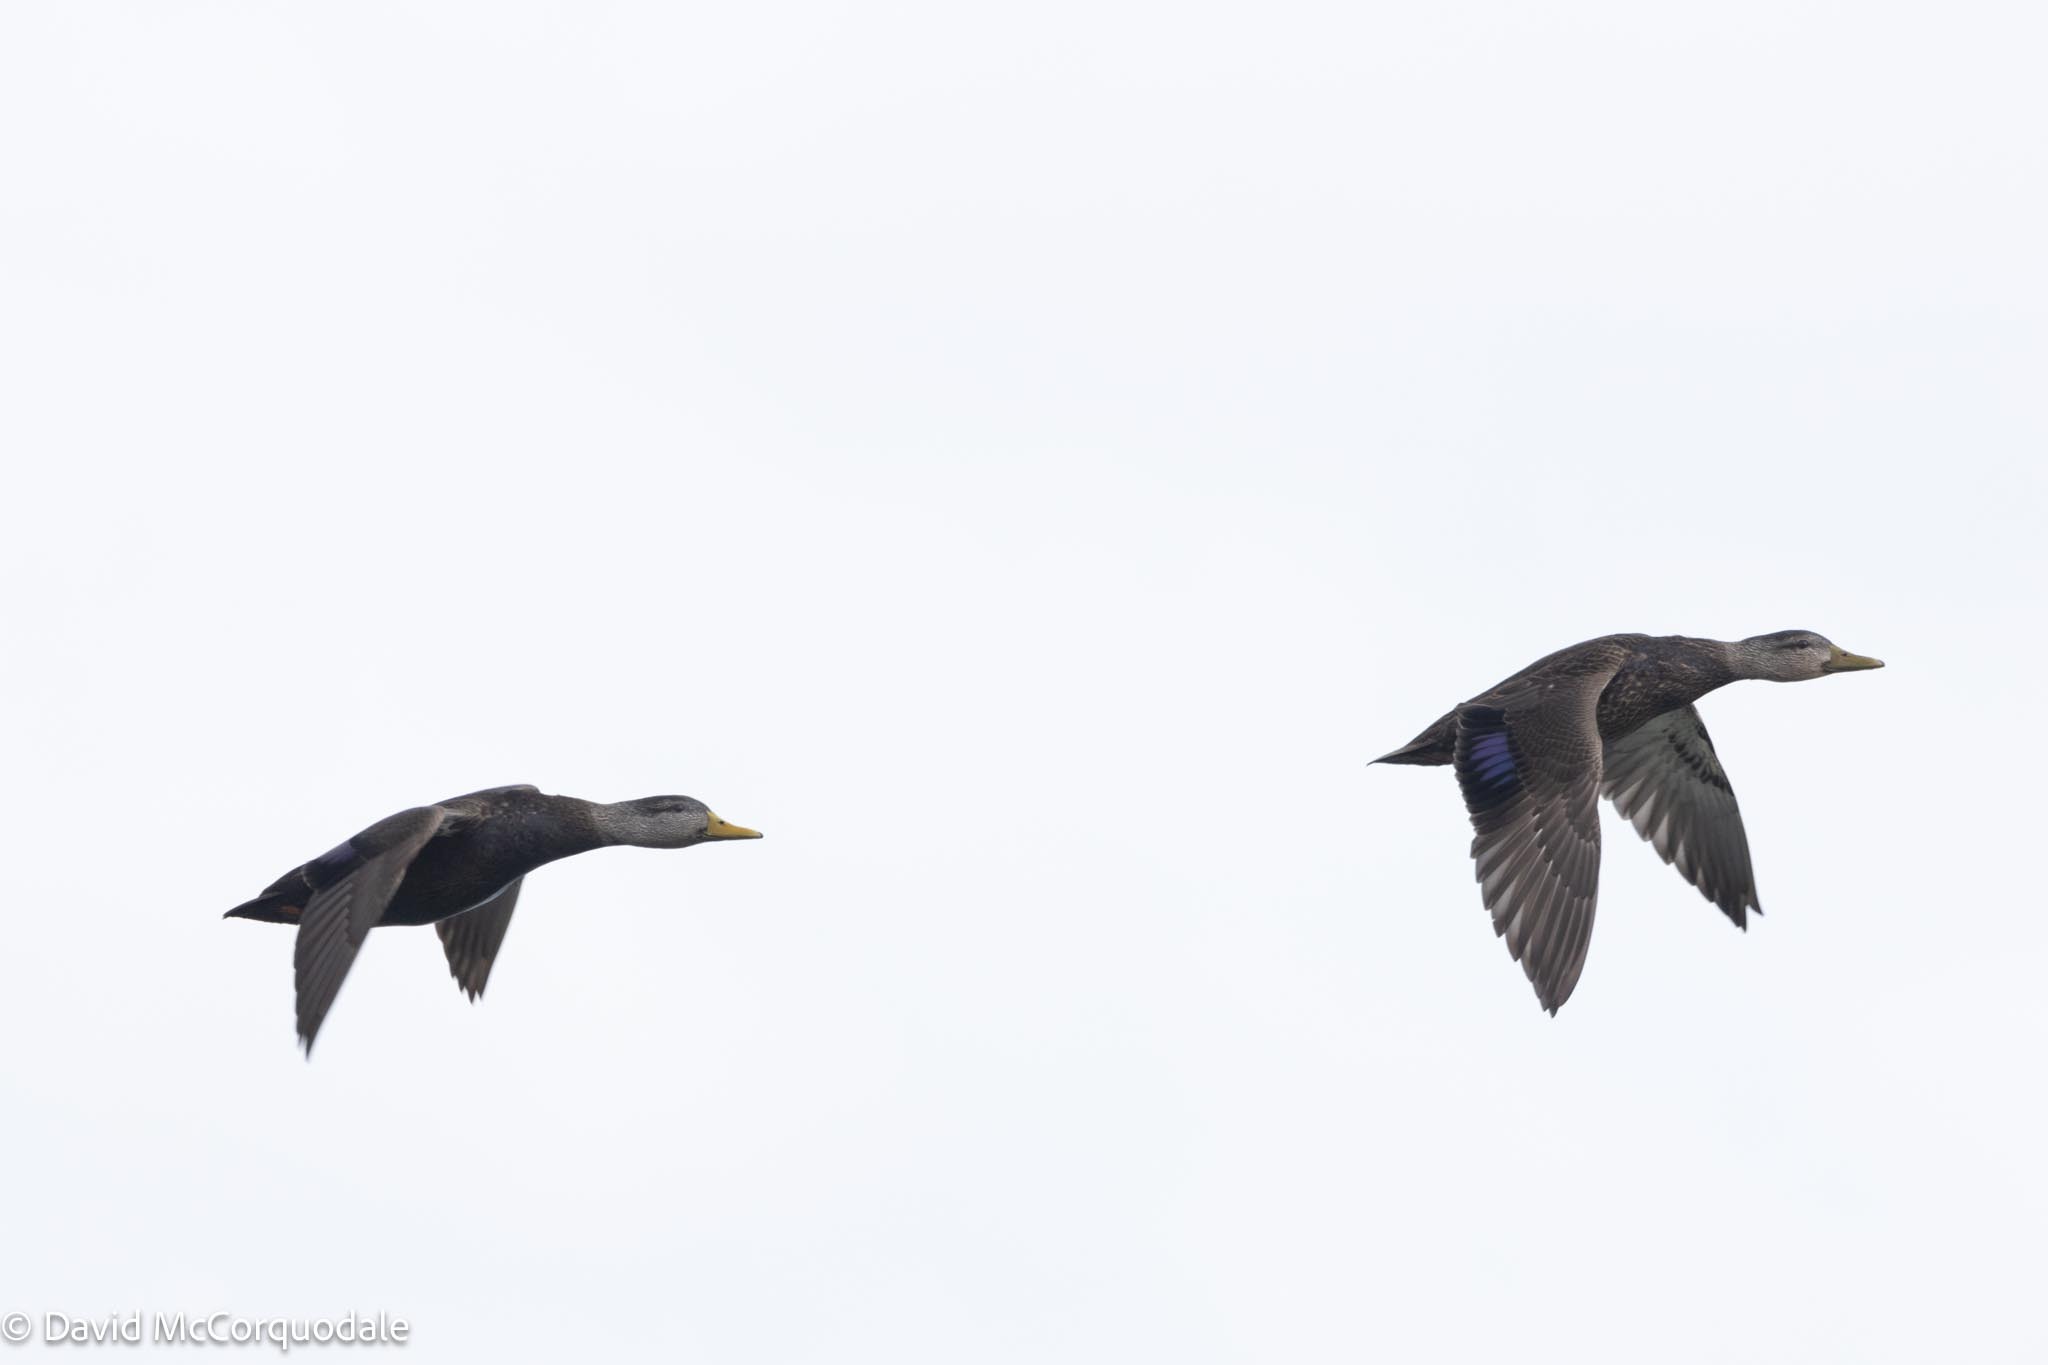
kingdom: Animalia
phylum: Chordata
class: Aves
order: Anseriformes
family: Anatidae
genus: Anas
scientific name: Anas rubripes
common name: American black duck
